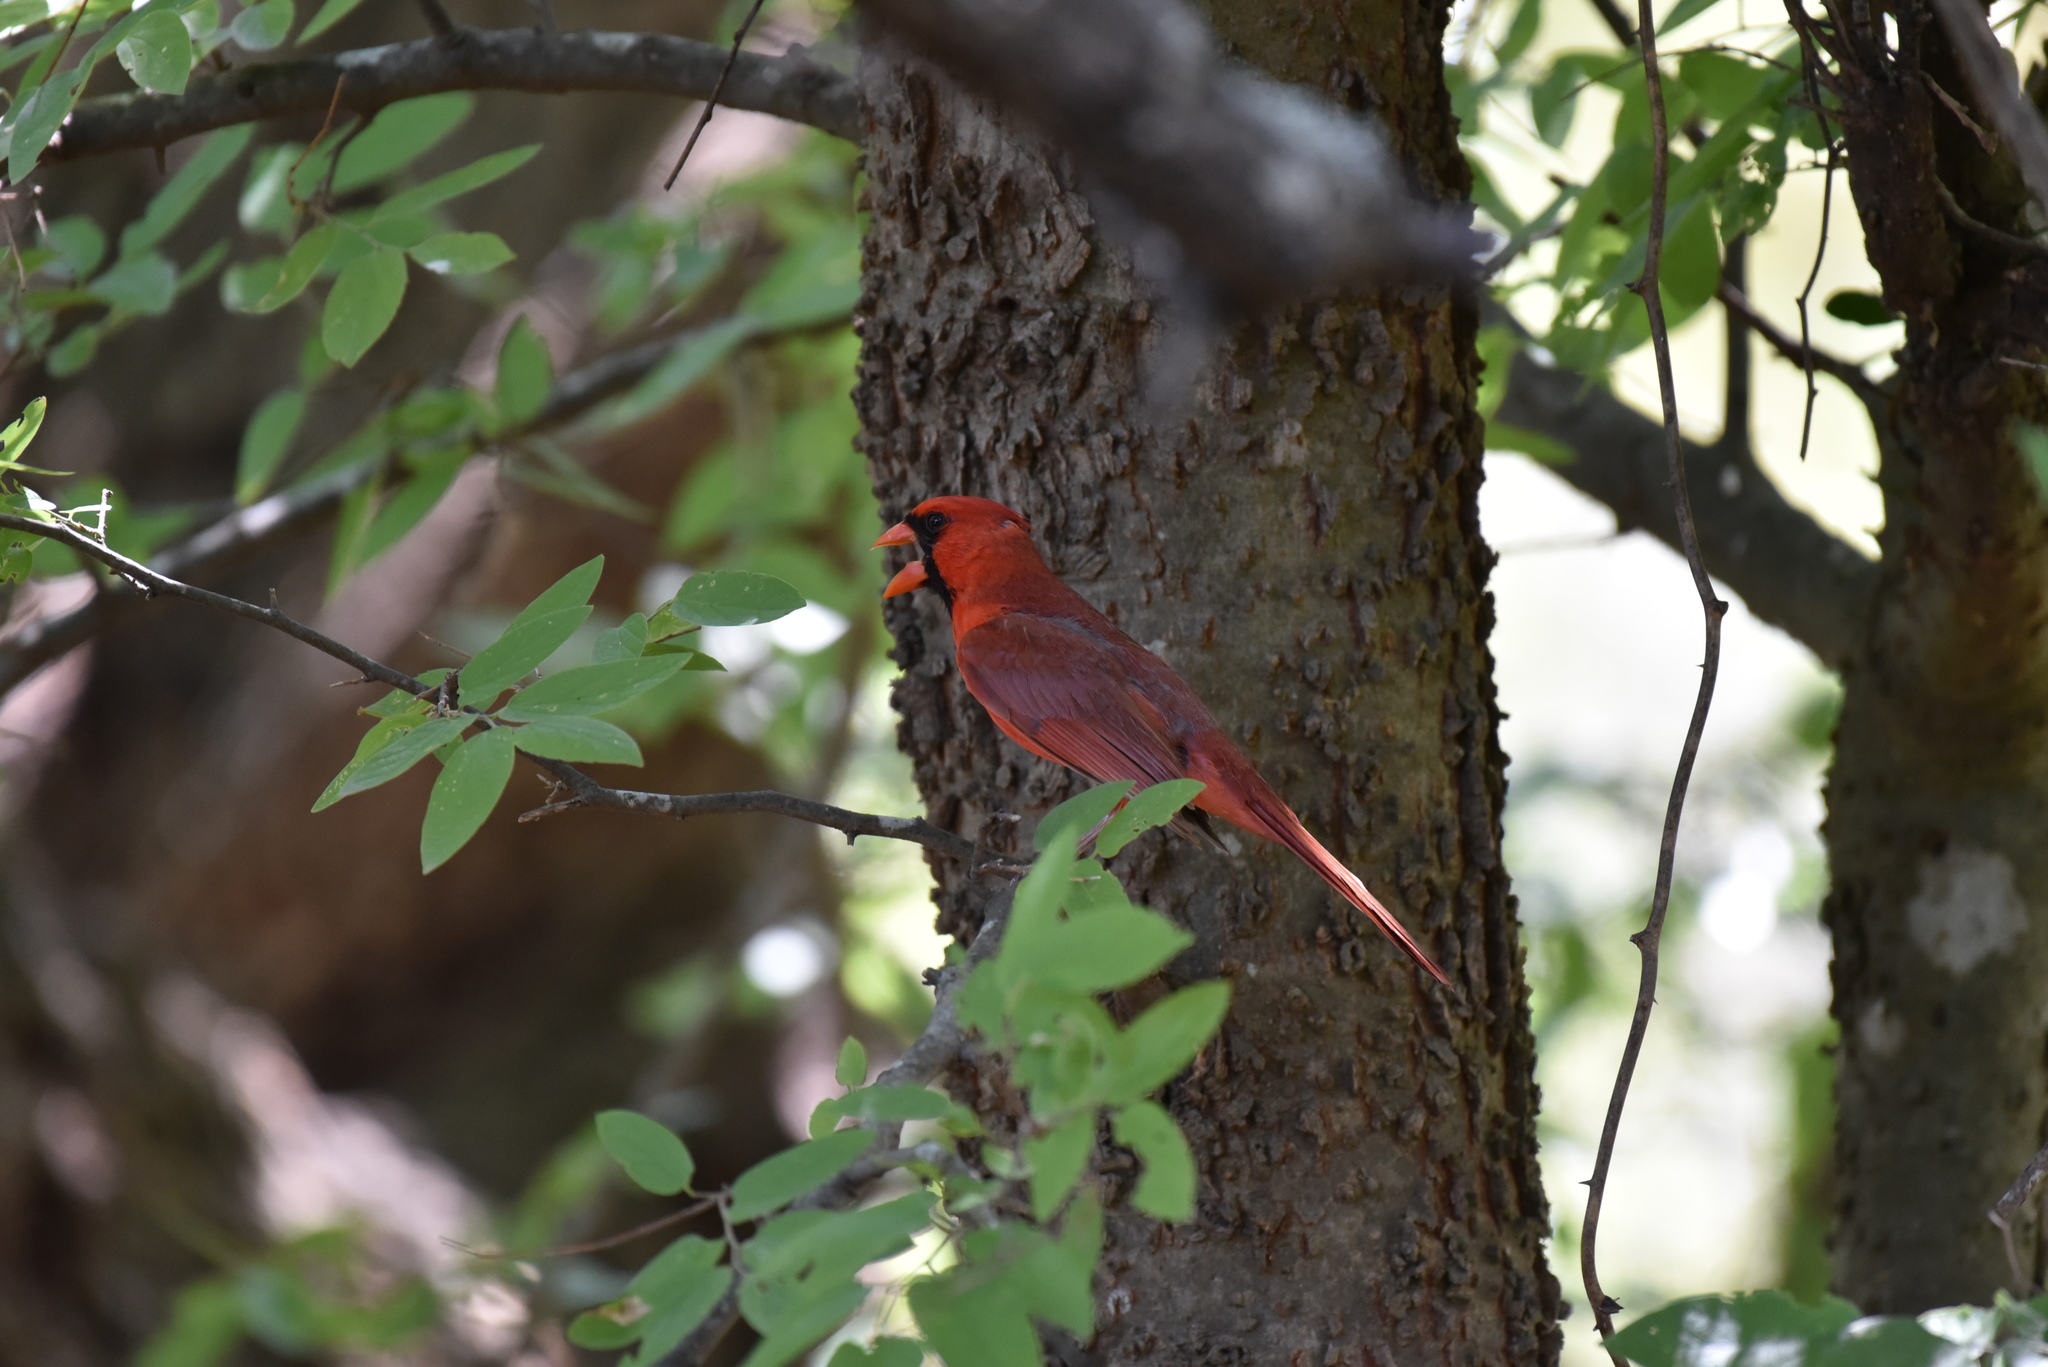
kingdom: Animalia
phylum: Chordata
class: Aves
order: Passeriformes
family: Cardinalidae
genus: Cardinalis
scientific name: Cardinalis cardinalis
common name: Northern cardinal
